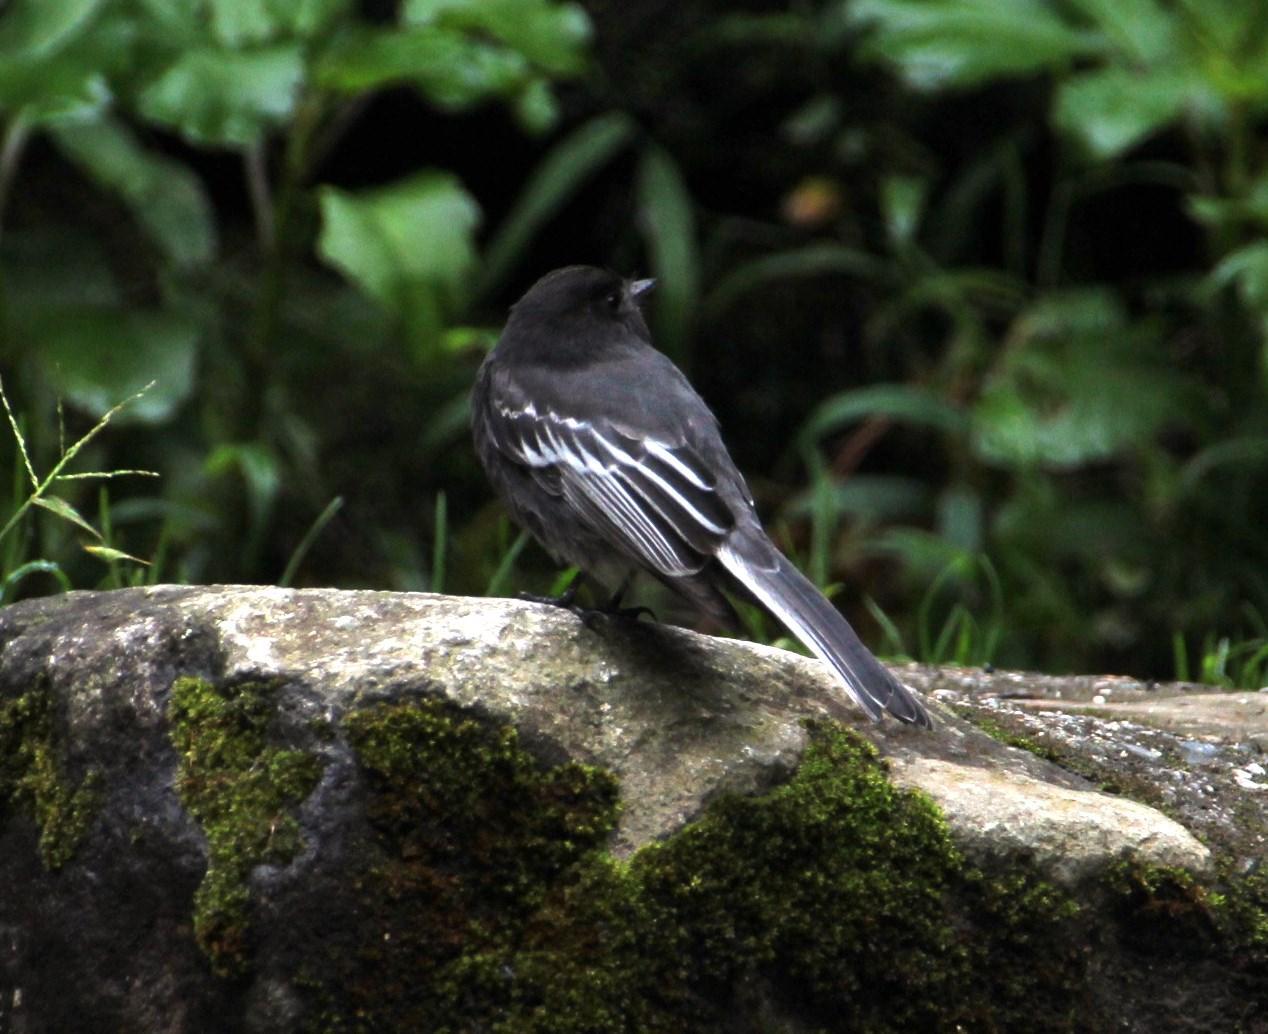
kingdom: Animalia
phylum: Chordata
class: Aves
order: Passeriformes
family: Tyrannidae
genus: Sayornis
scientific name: Sayornis nigricans
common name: Black phoebe
